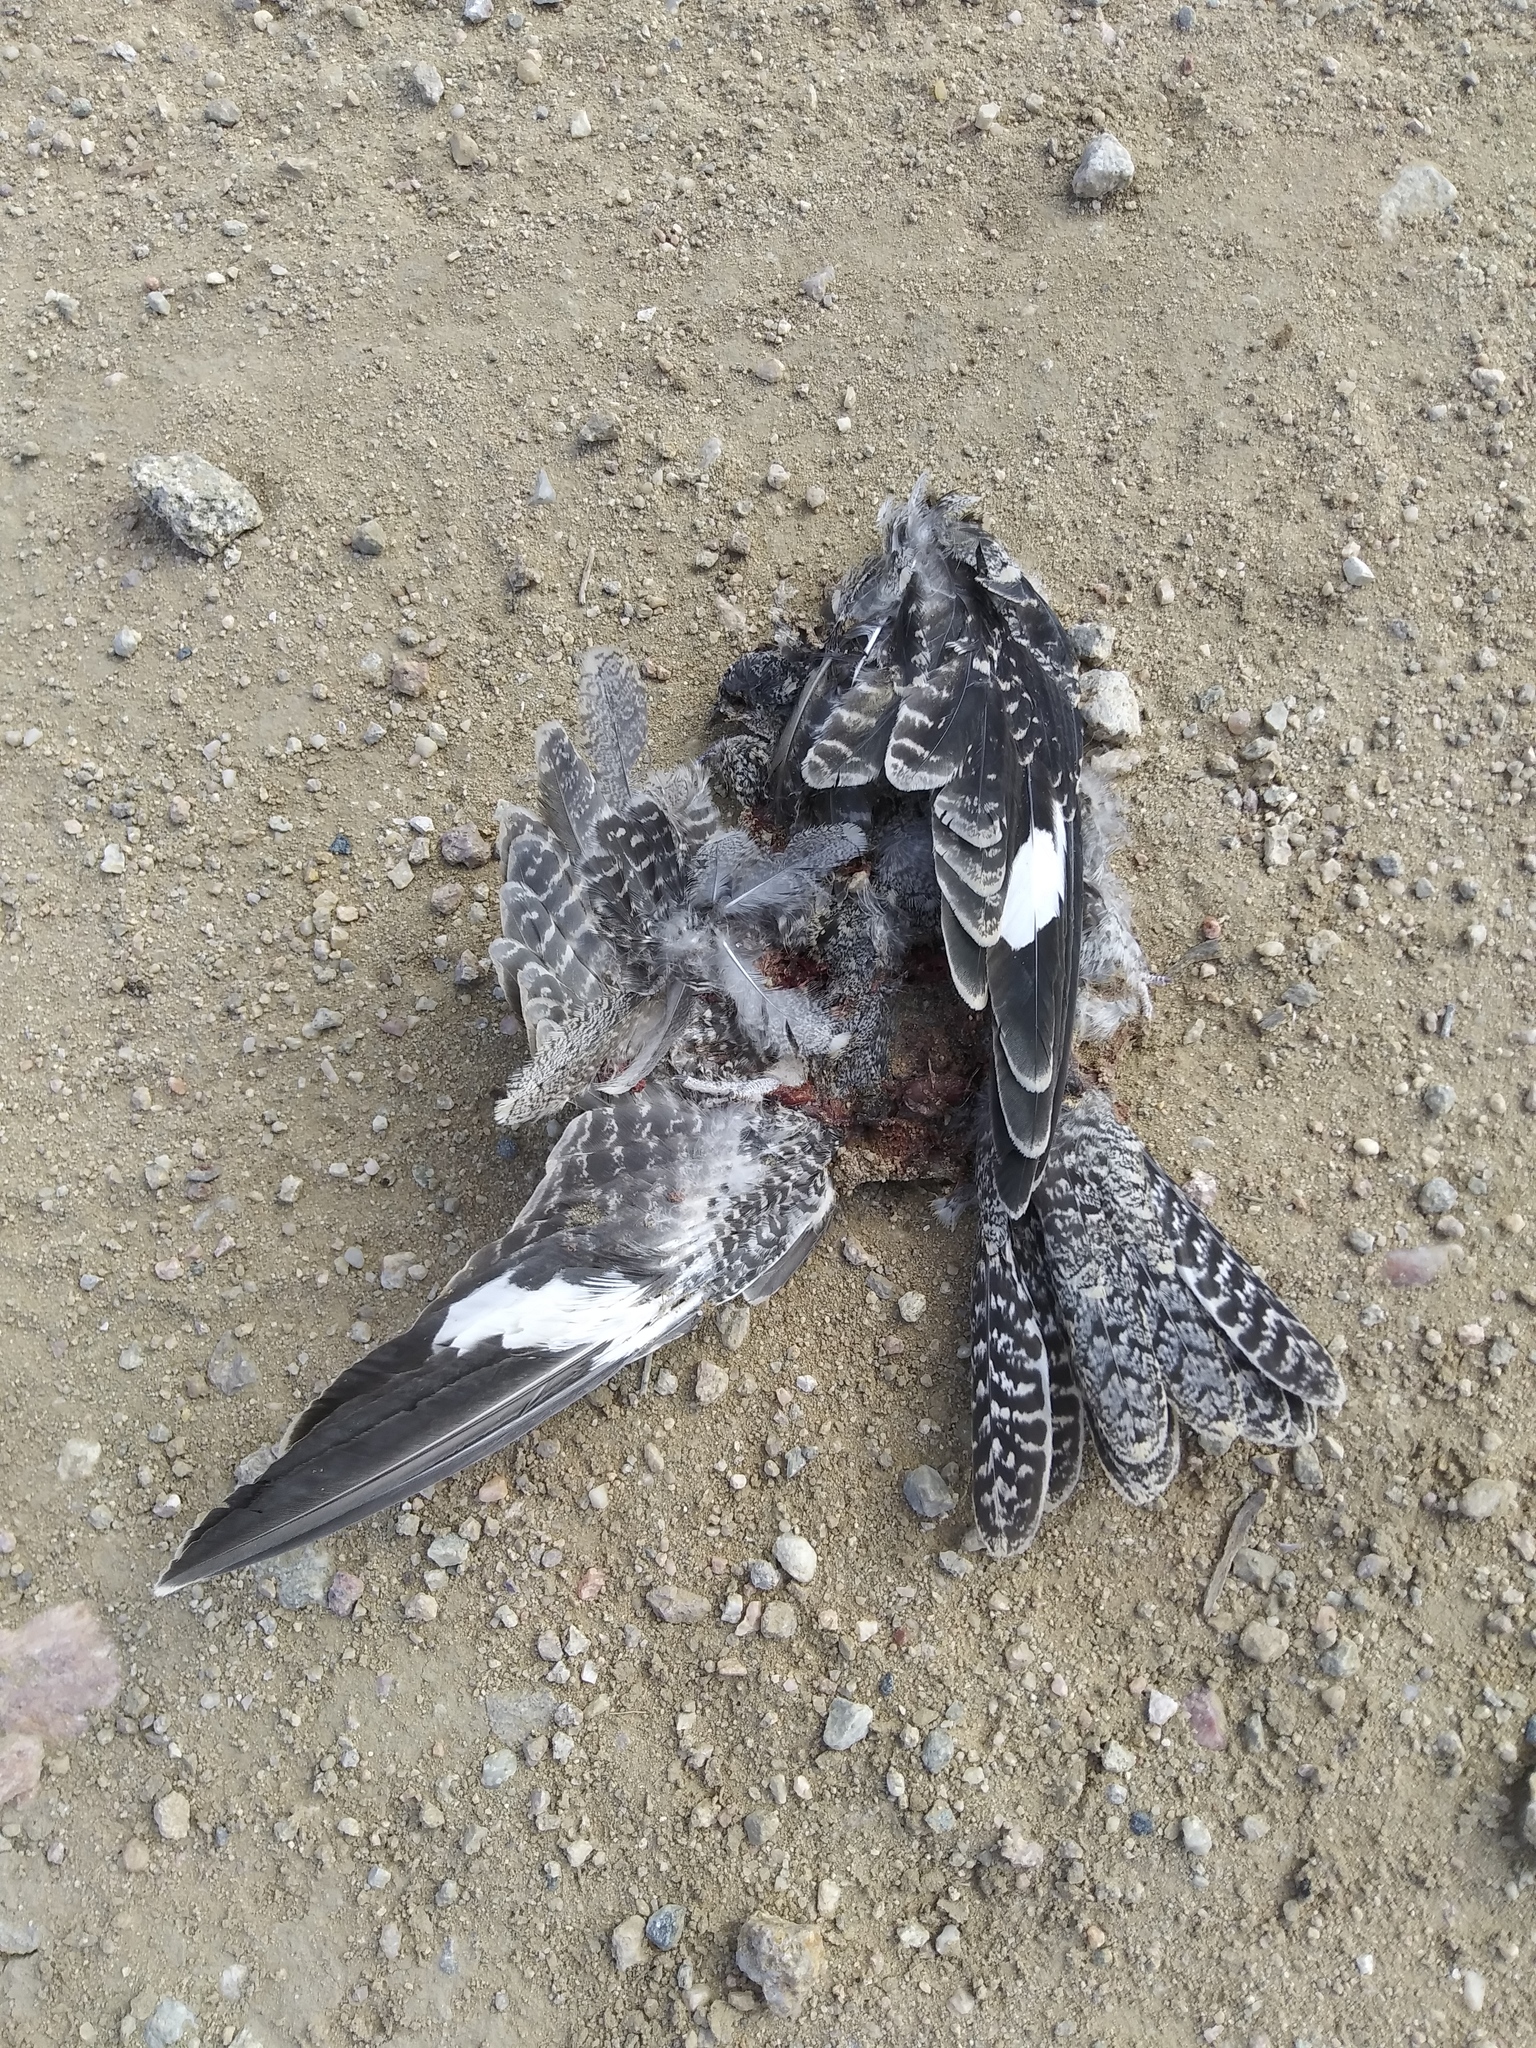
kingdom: Animalia
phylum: Chordata
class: Aves
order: Caprimulgiformes
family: Caprimulgidae
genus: Chordeiles
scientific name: Chordeiles minor
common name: Common nighthawk
